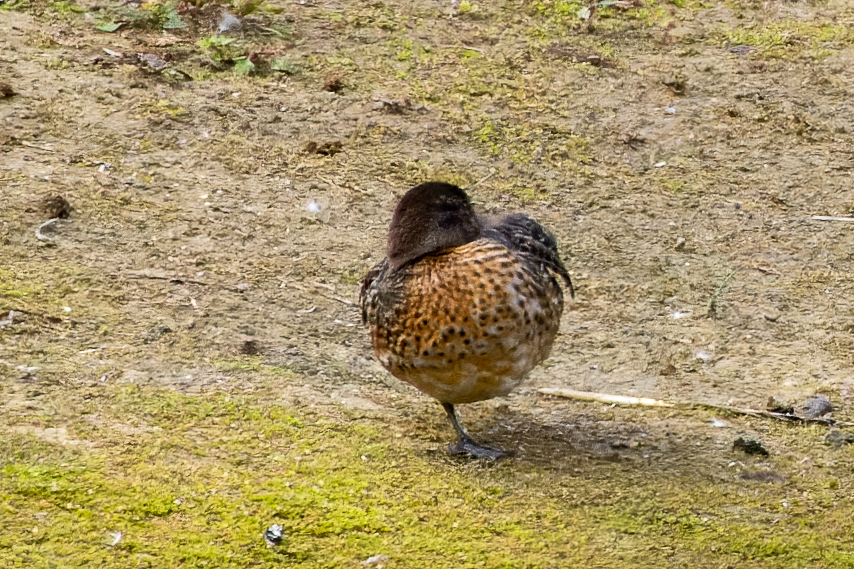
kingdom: Animalia
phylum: Chordata
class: Aves
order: Anseriformes
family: Anatidae
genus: Anas
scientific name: Anas crecca
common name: Eurasian teal
